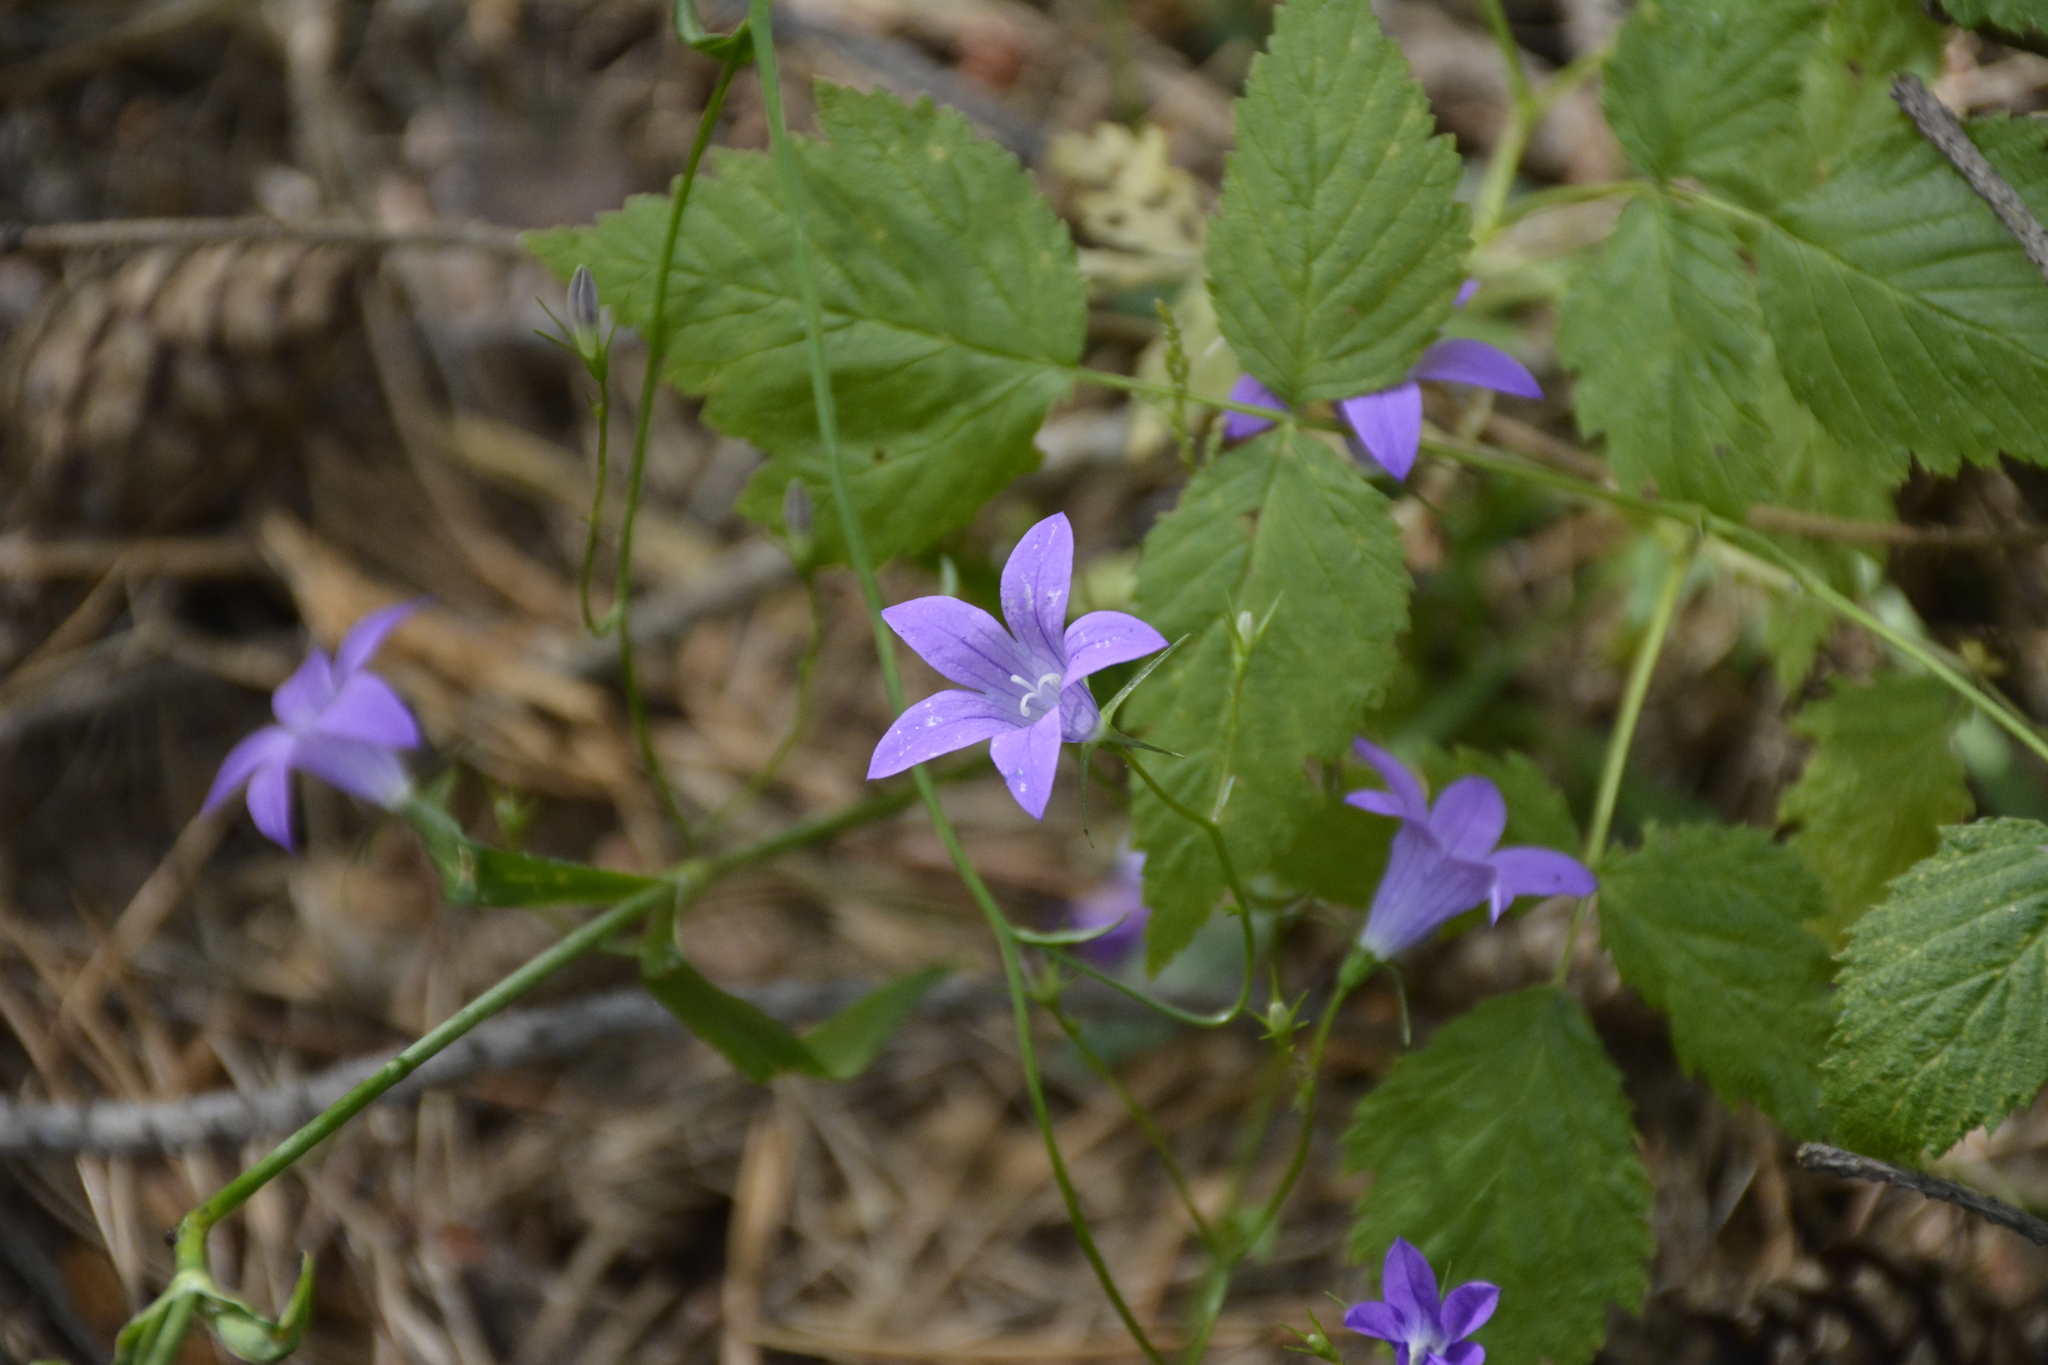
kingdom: Plantae
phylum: Tracheophyta
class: Magnoliopsida
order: Asterales
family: Campanulaceae
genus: Campanula
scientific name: Campanula patula
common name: Spreading bellflower
